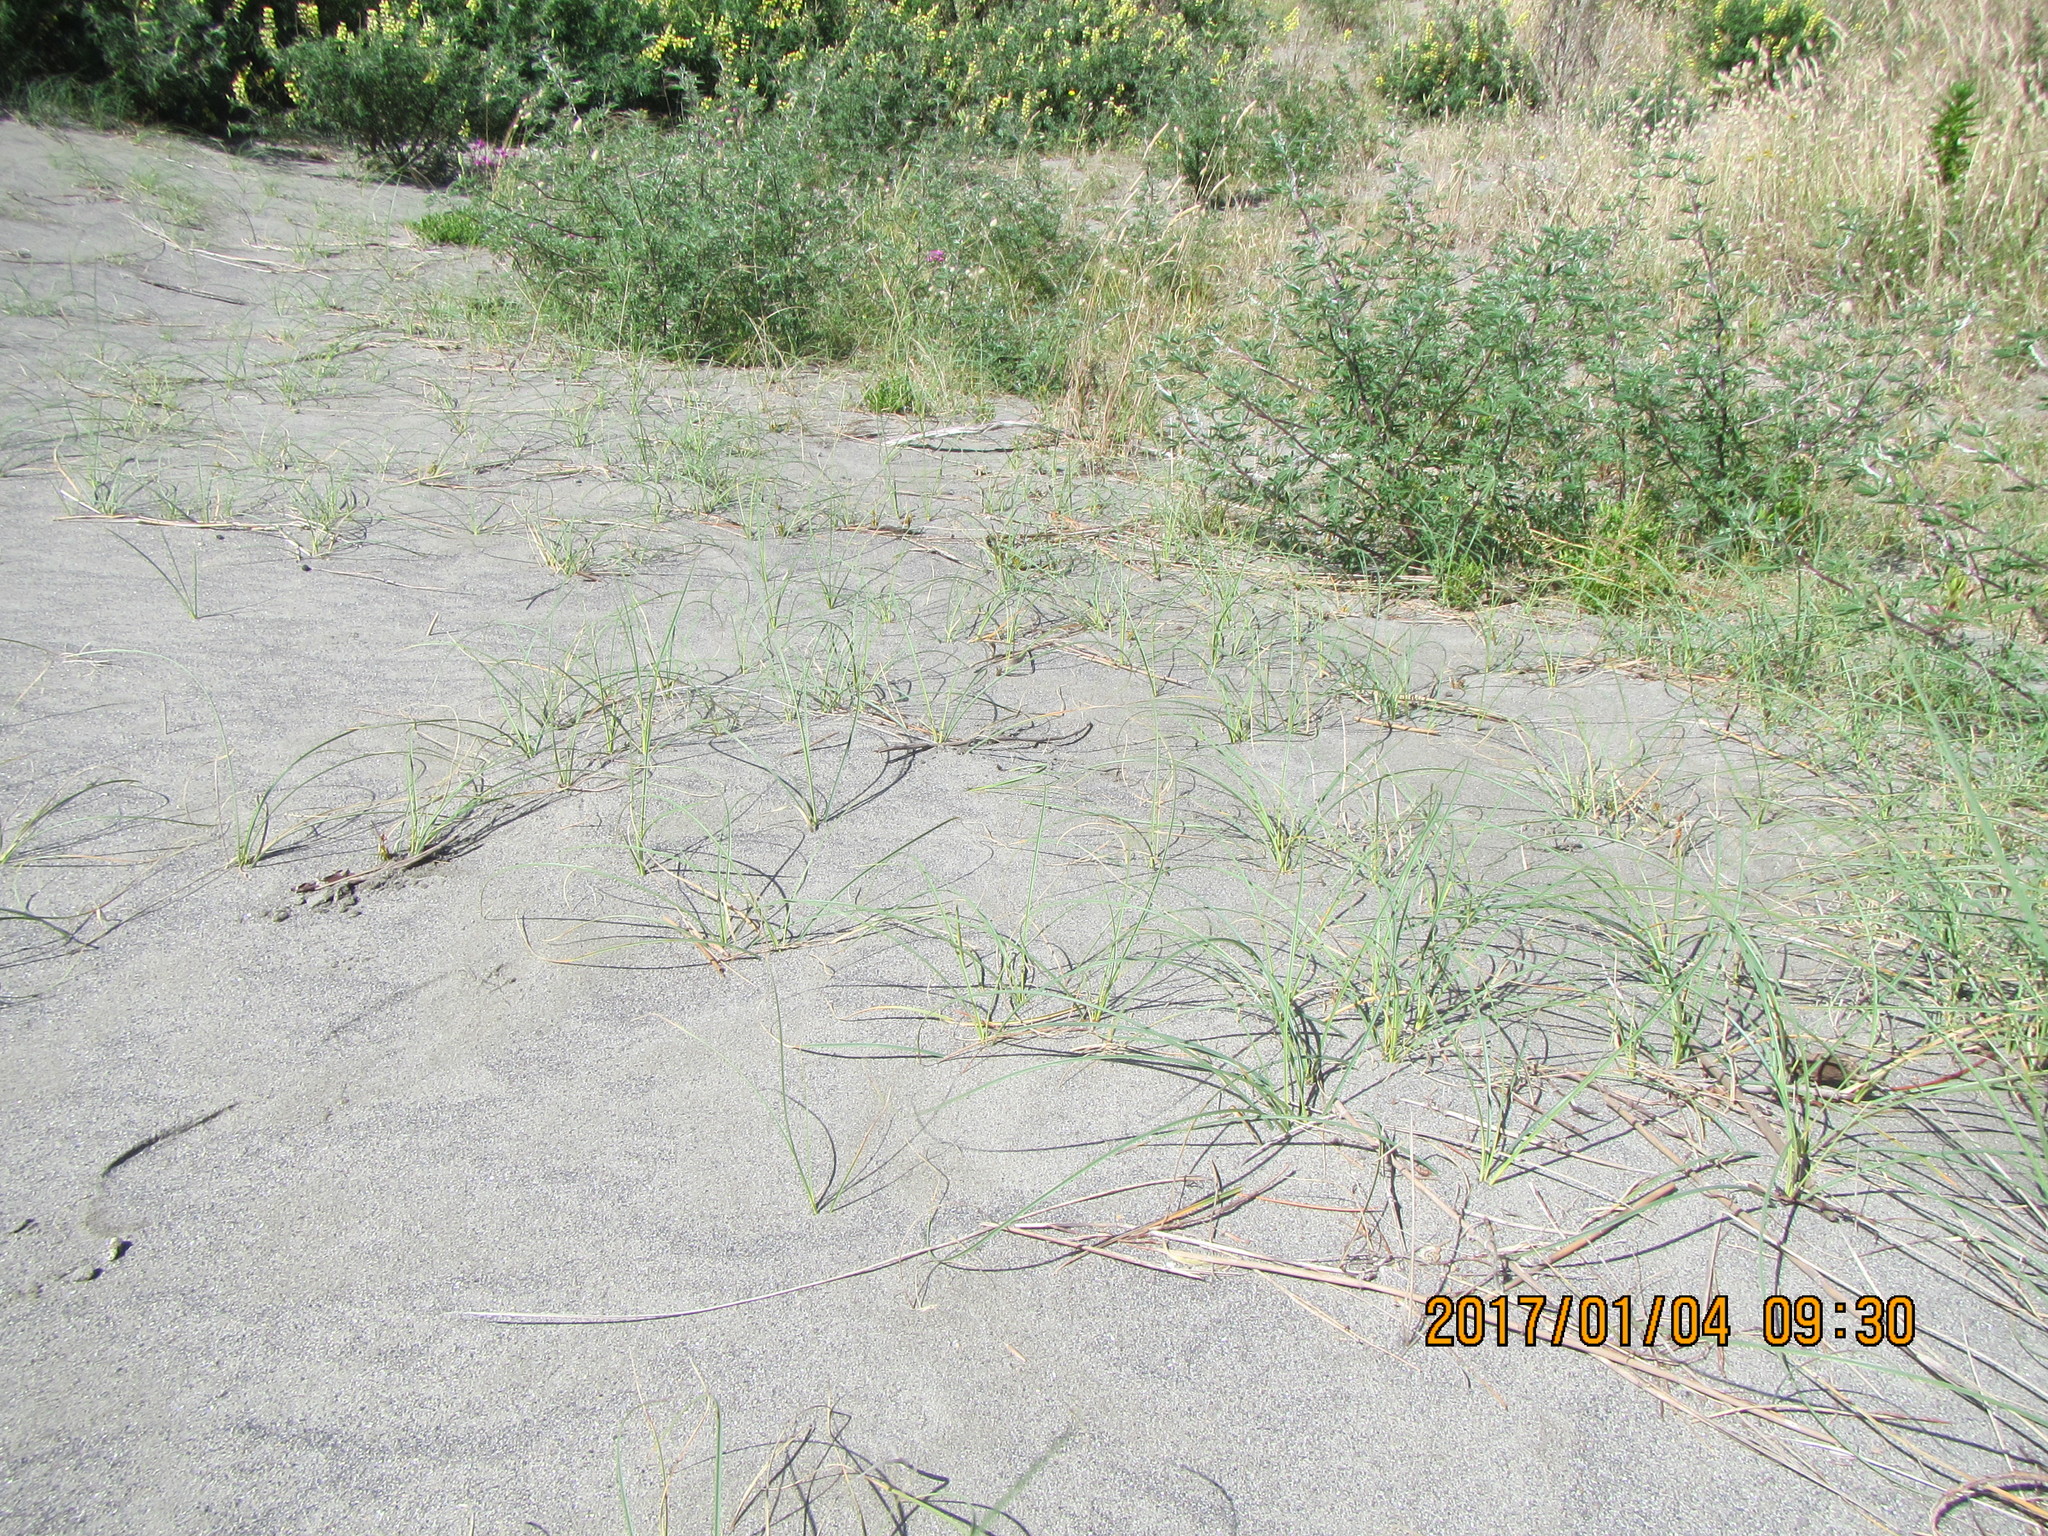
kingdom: Plantae
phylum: Tracheophyta
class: Liliopsida
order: Poales
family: Cyperaceae
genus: Carex
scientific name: Carex pumila
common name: Dwarf sedge
